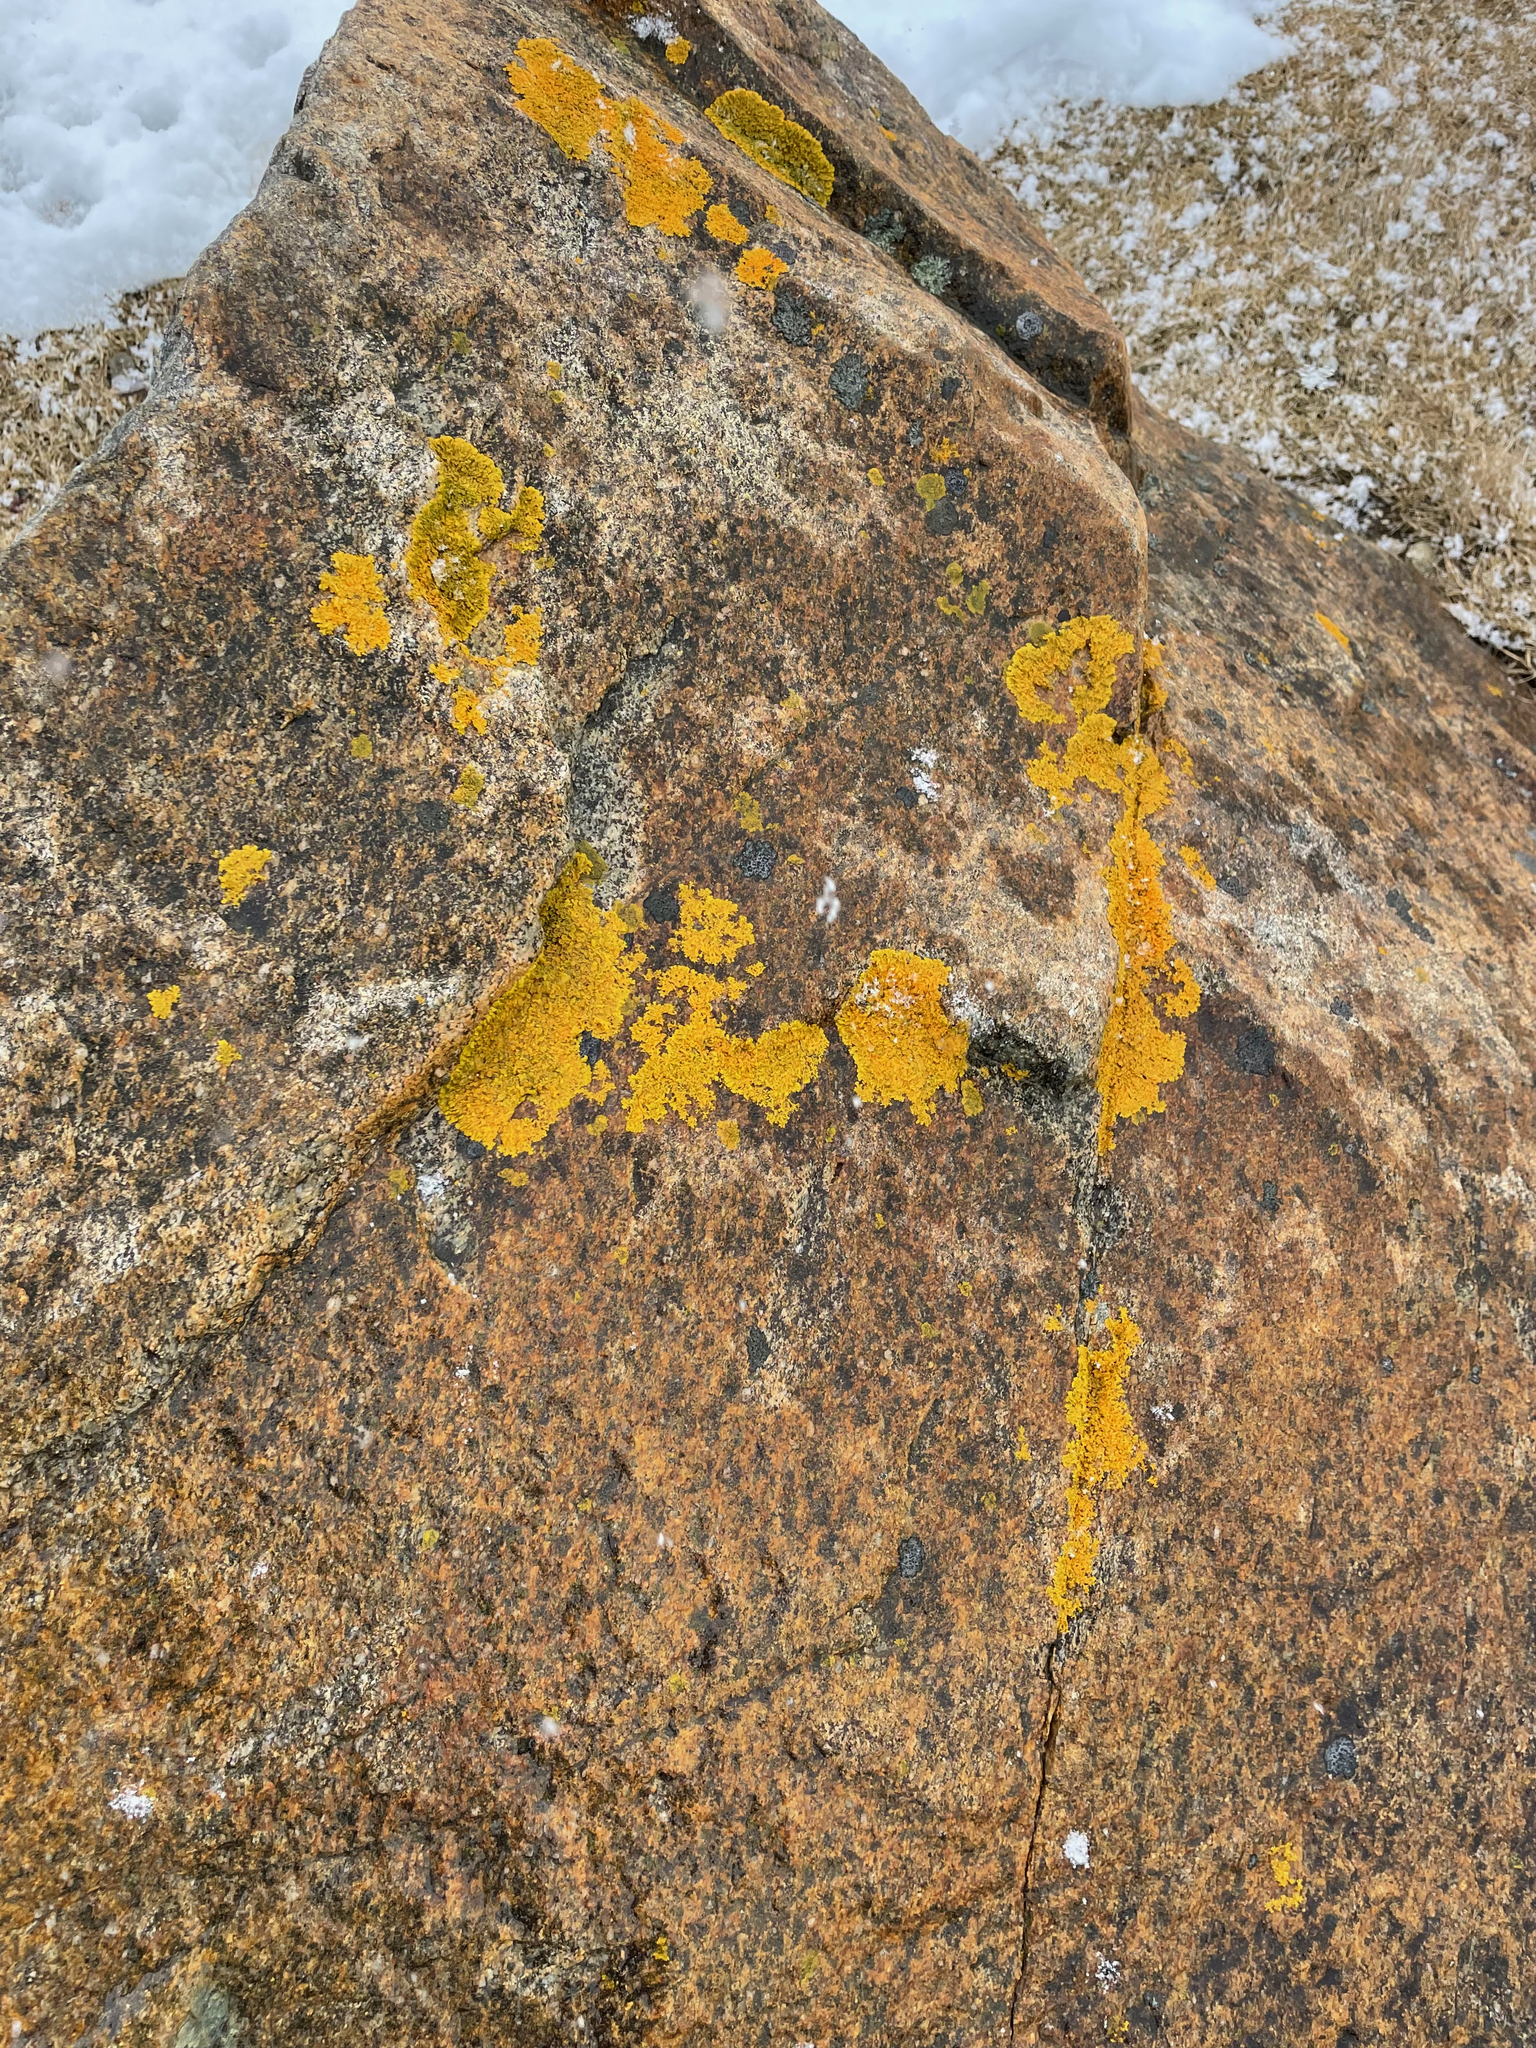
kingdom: Fungi
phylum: Ascomycota
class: Lecanoromycetes
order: Teloschistales
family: Teloschistaceae
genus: Xanthoria
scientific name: Xanthoria parietina
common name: Common orange lichen
